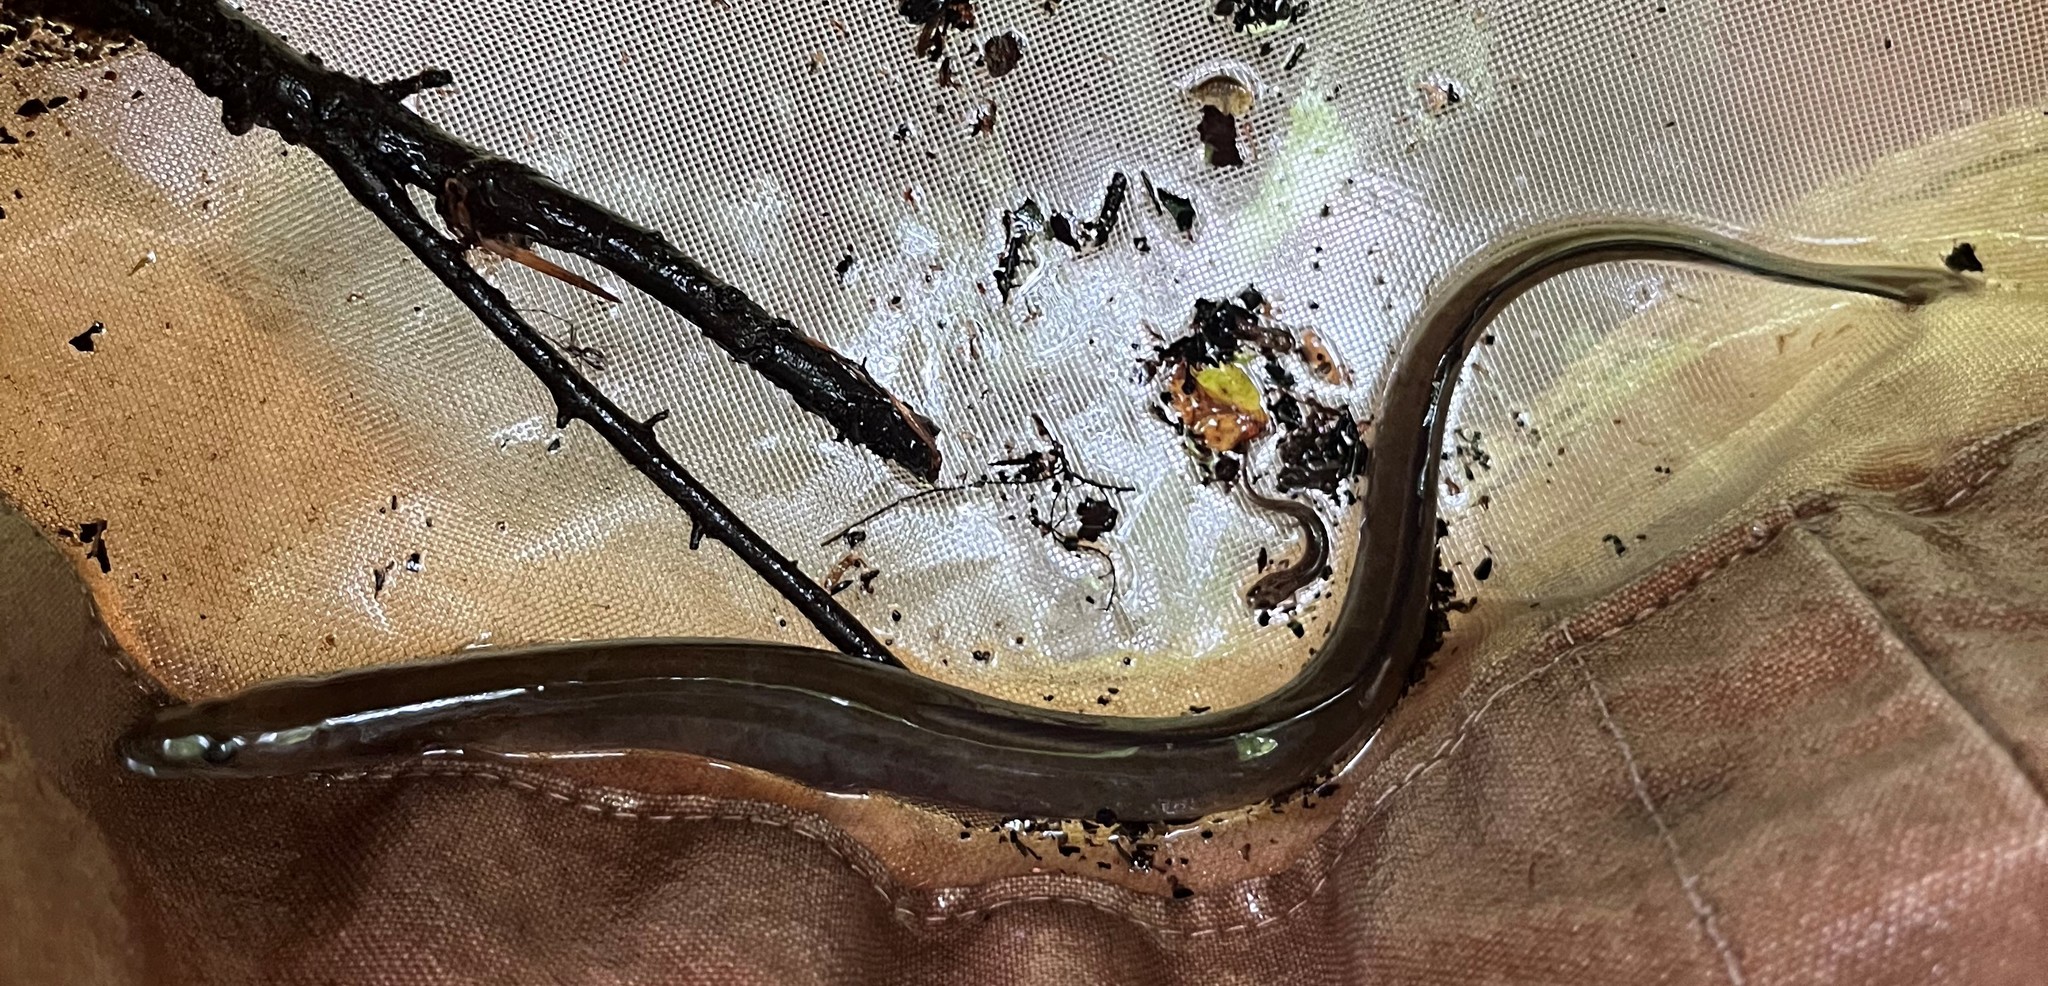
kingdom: Animalia
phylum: Chordata
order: Anguilliformes
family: Anguillidae
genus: Anguilla
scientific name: Anguilla rostrata
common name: American eel
